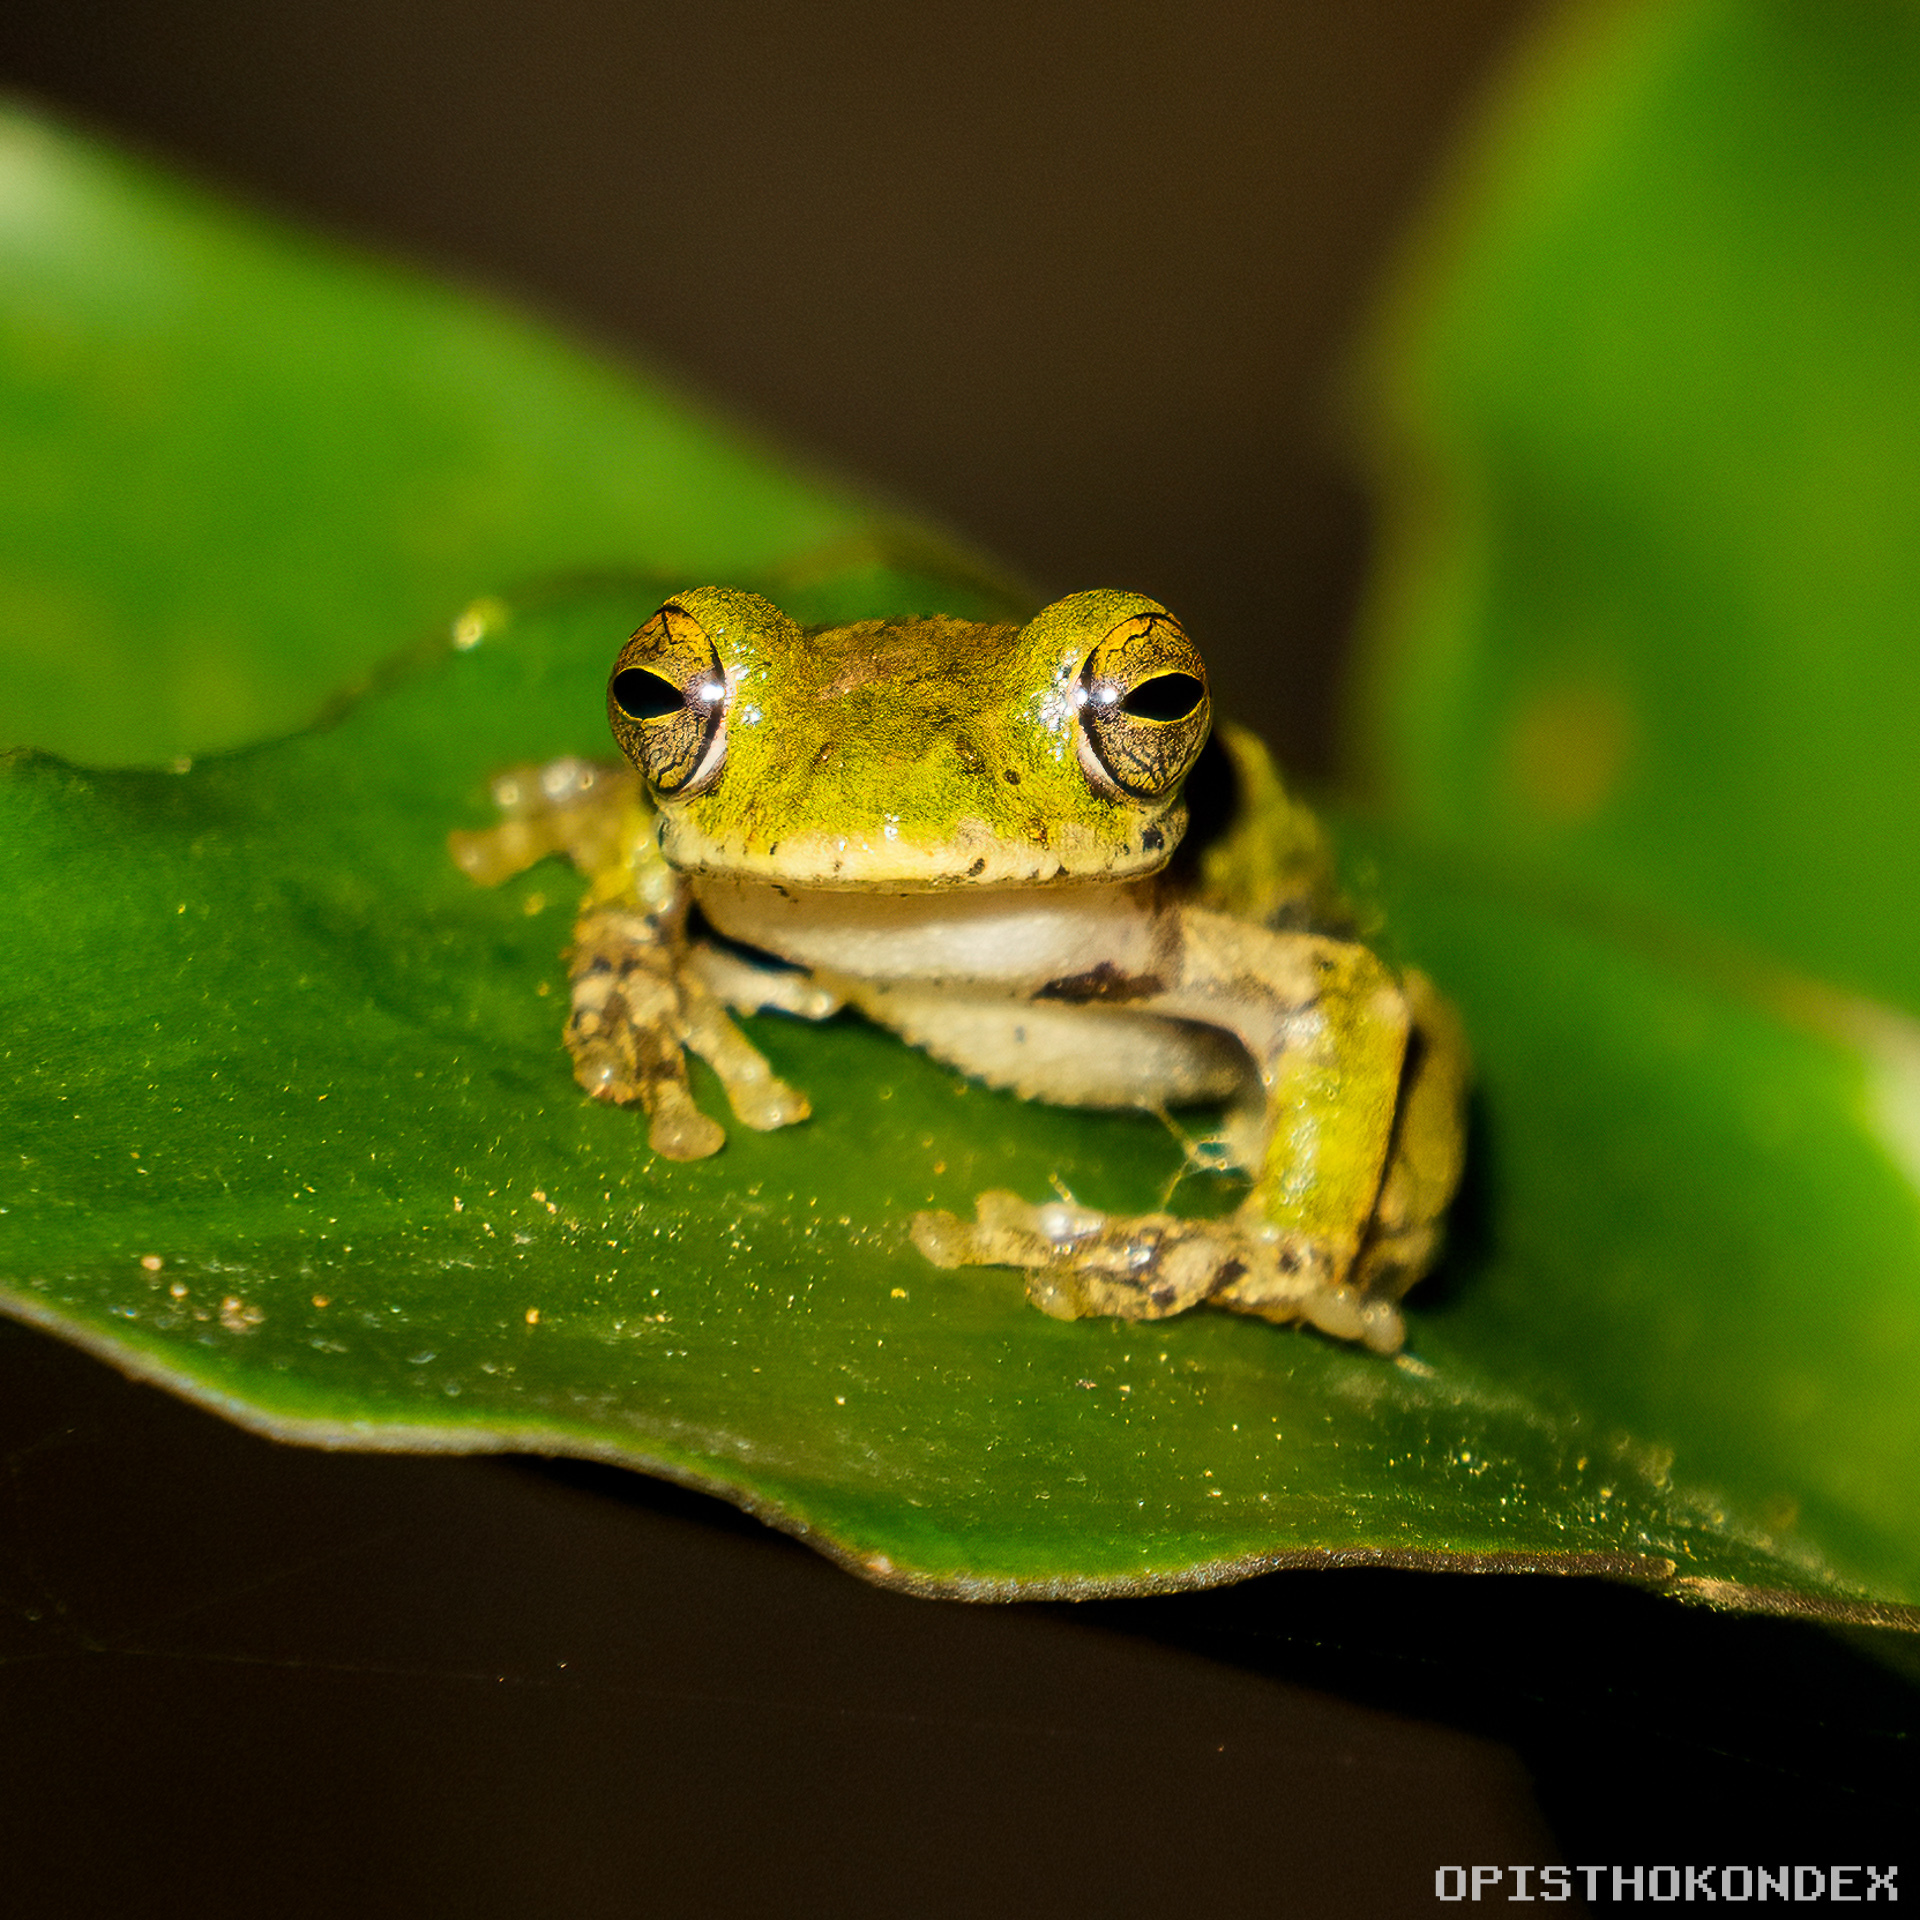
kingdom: Animalia
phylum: Chordata
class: Amphibia
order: Anura
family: Hylidae
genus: Rheohyla
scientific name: Rheohyla miotympanum
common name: Small-eard hyla
